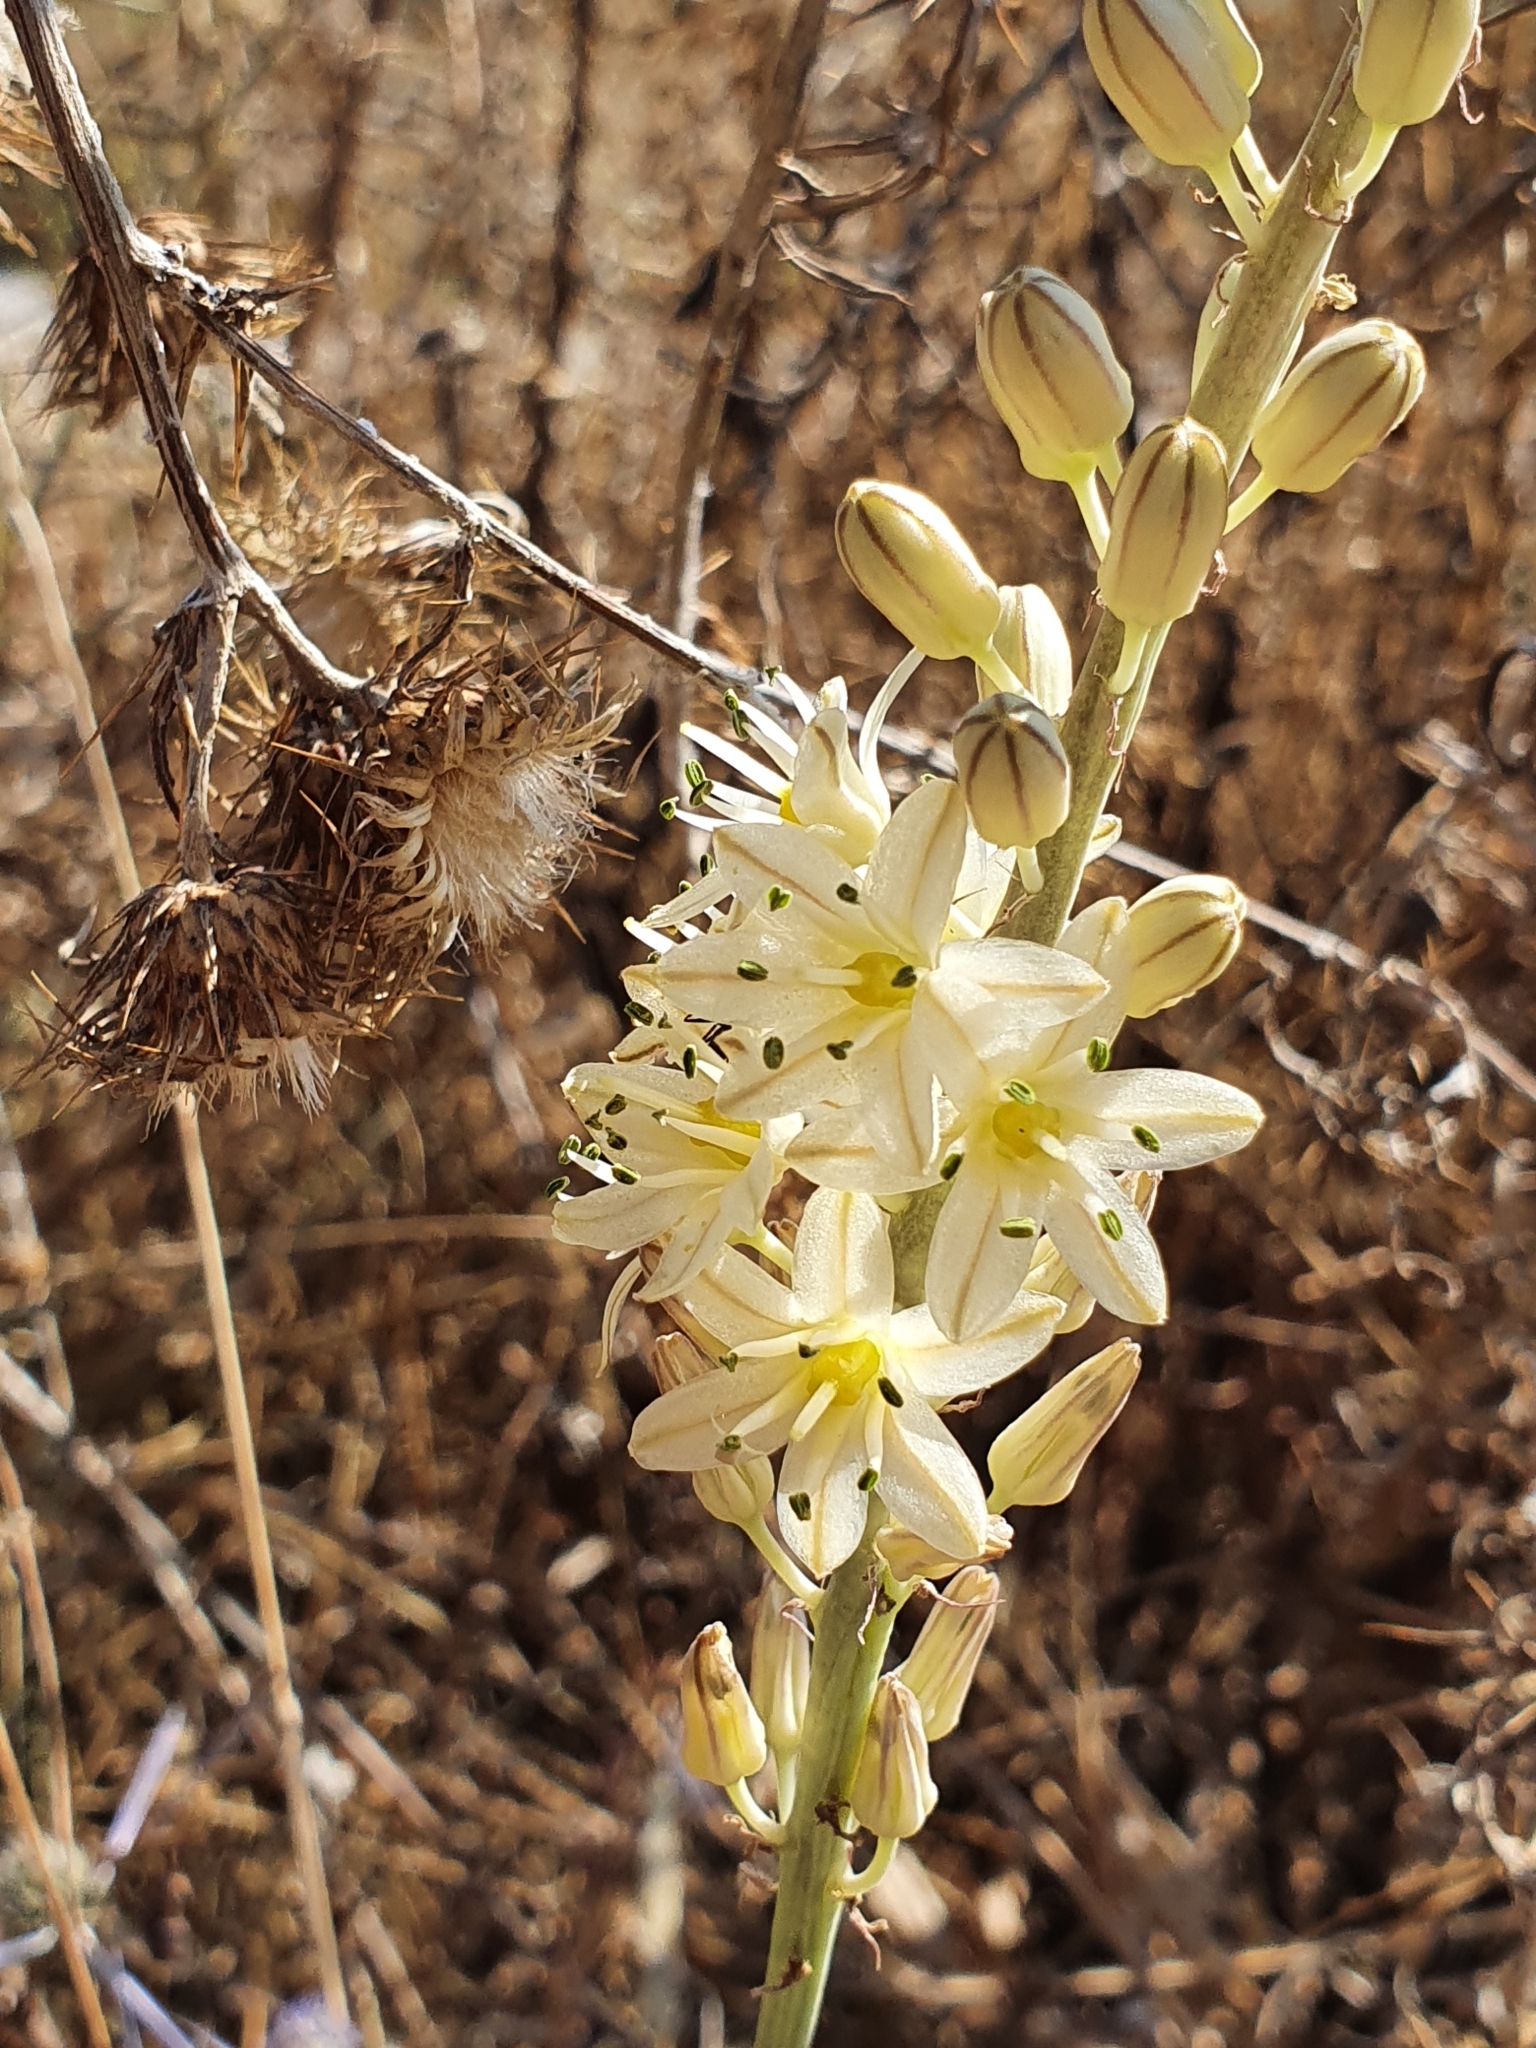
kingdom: Plantae
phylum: Tracheophyta
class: Liliopsida
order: Asparagales
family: Asparagaceae
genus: Drimia
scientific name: Drimia anthericoides
